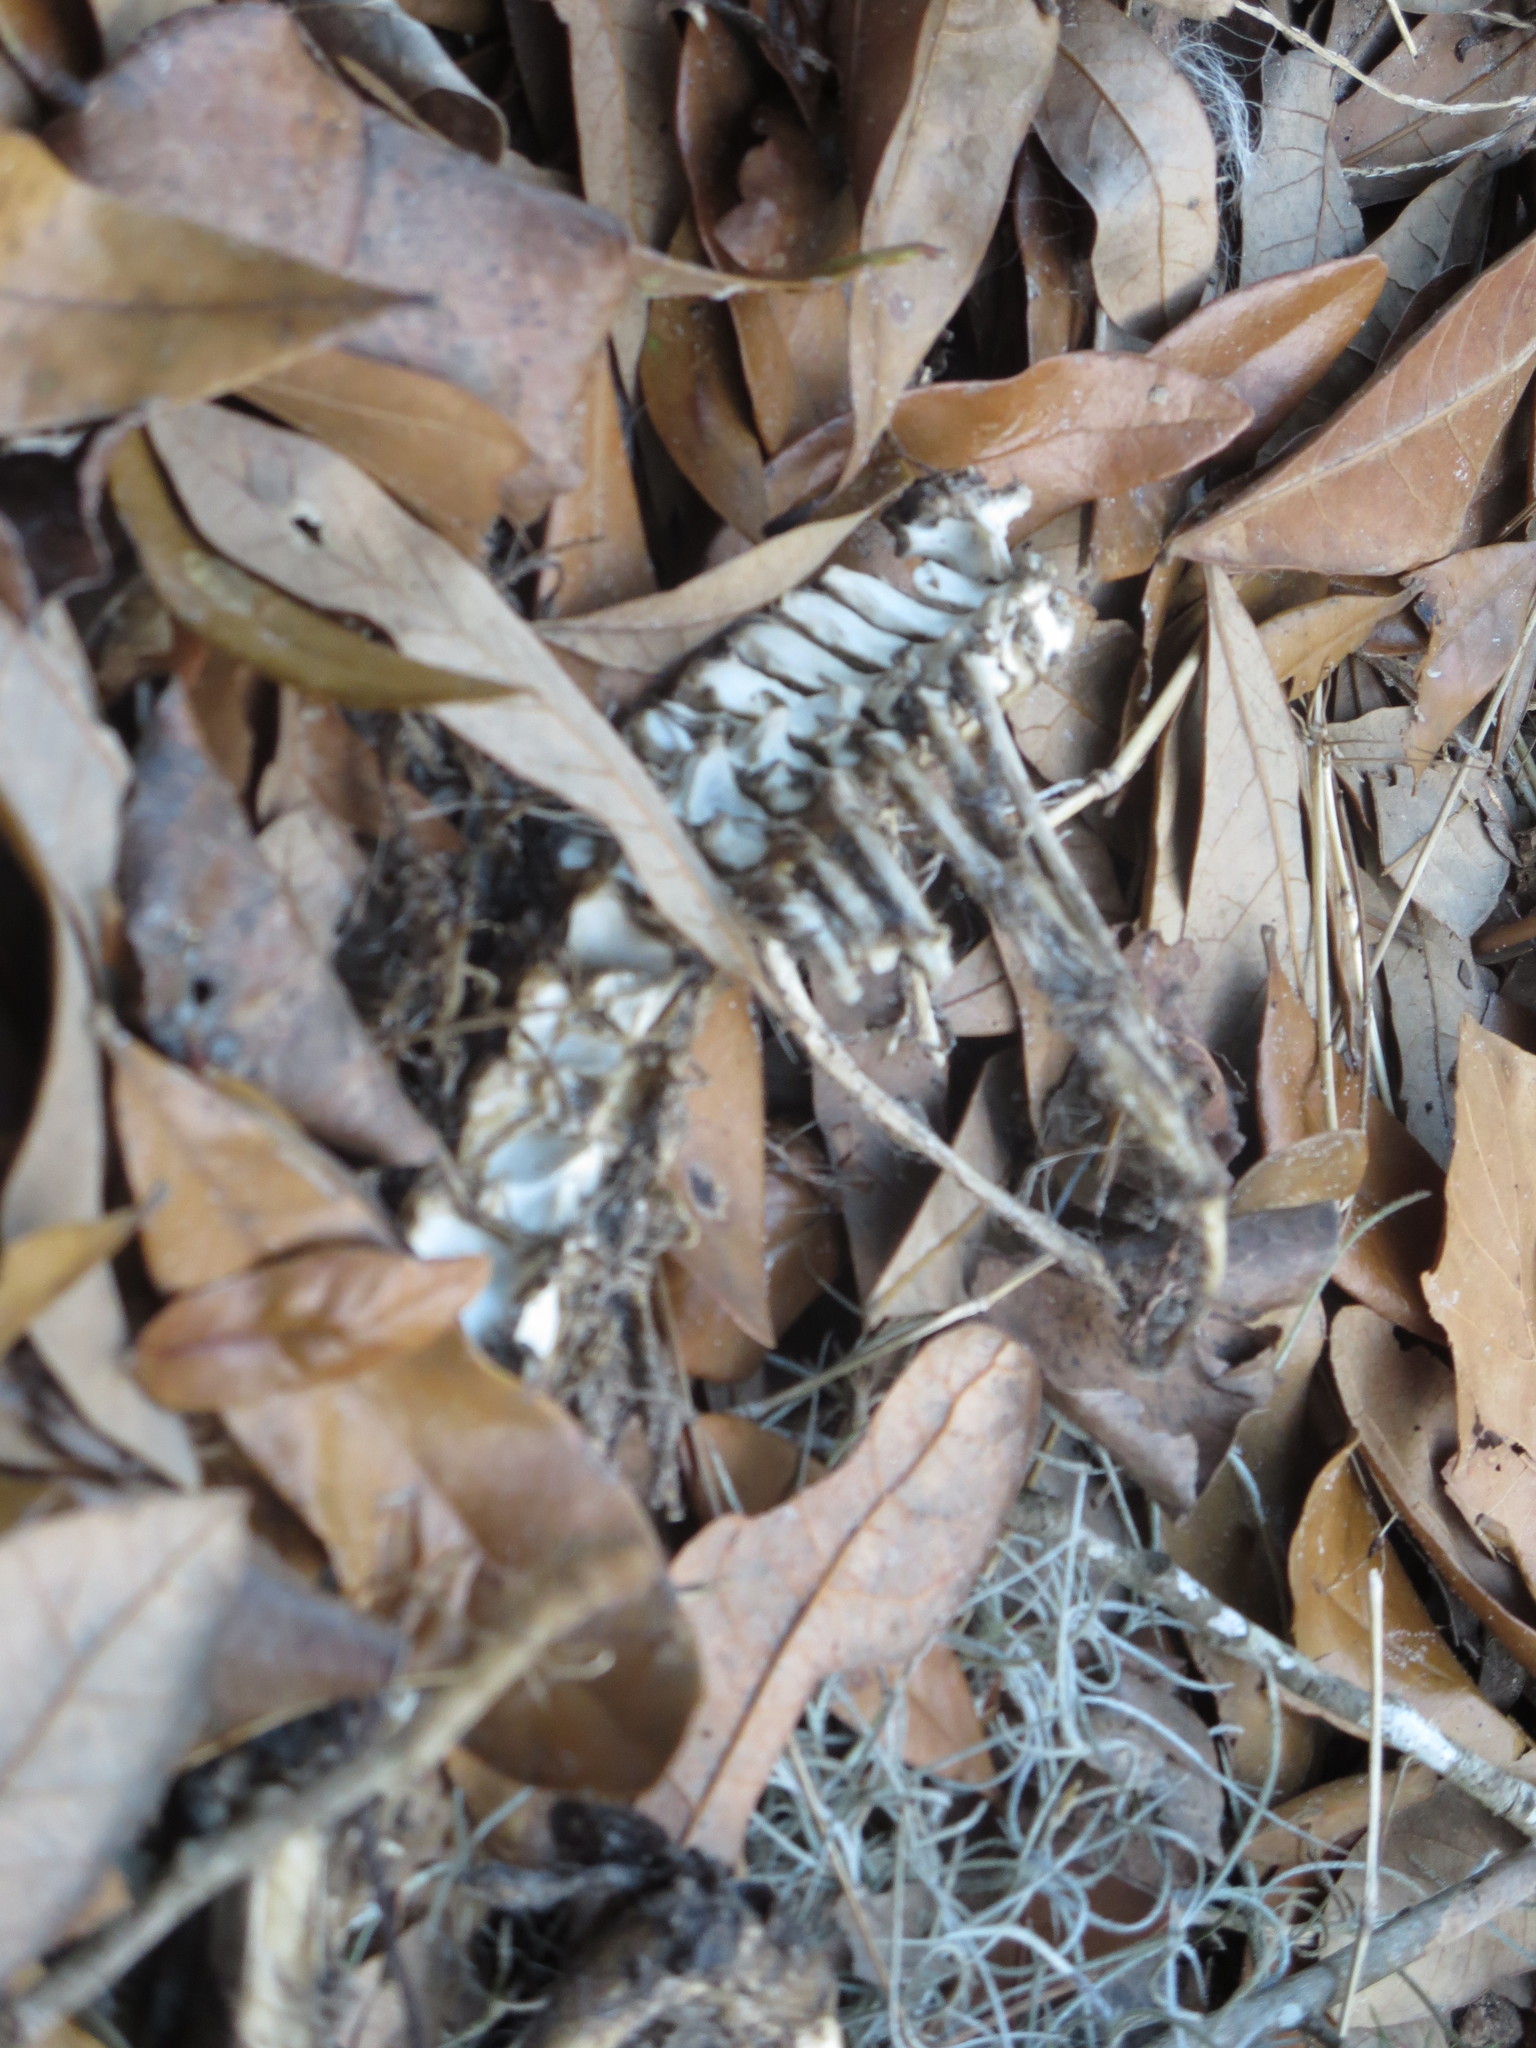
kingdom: Animalia
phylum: Chordata
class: Mammalia
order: Didelphimorphia
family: Didelphidae
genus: Didelphis
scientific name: Didelphis virginiana
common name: Virginia opossum
